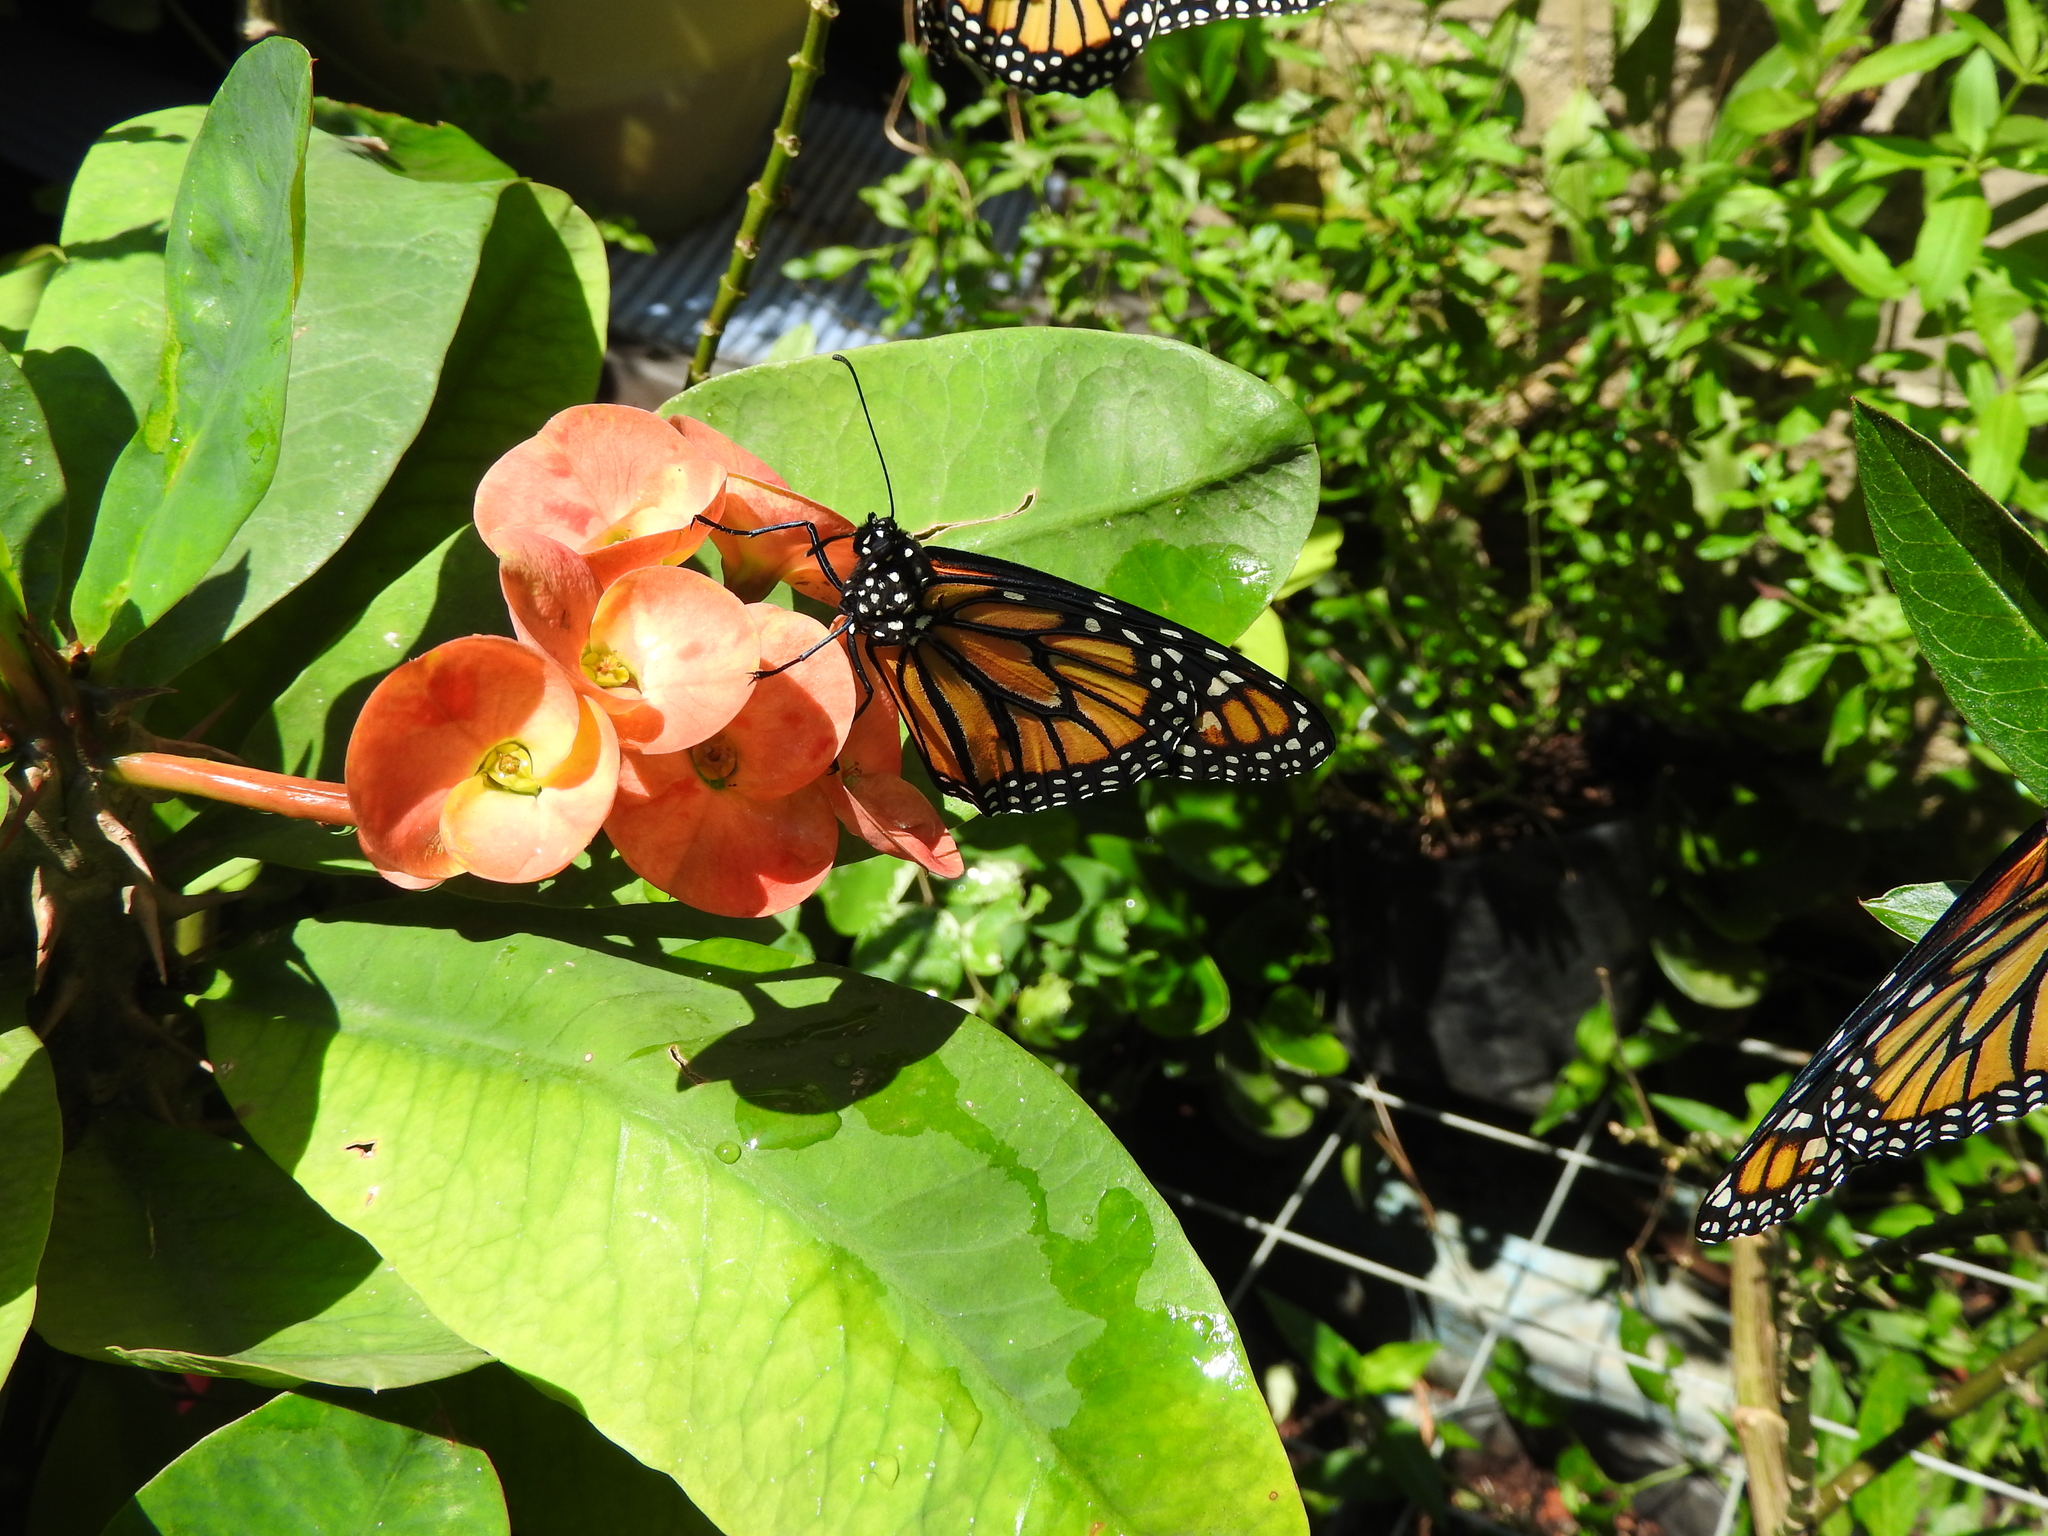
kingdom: Animalia
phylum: Arthropoda
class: Insecta
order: Lepidoptera
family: Nymphalidae
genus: Danaus
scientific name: Danaus plexippus
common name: Monarch
